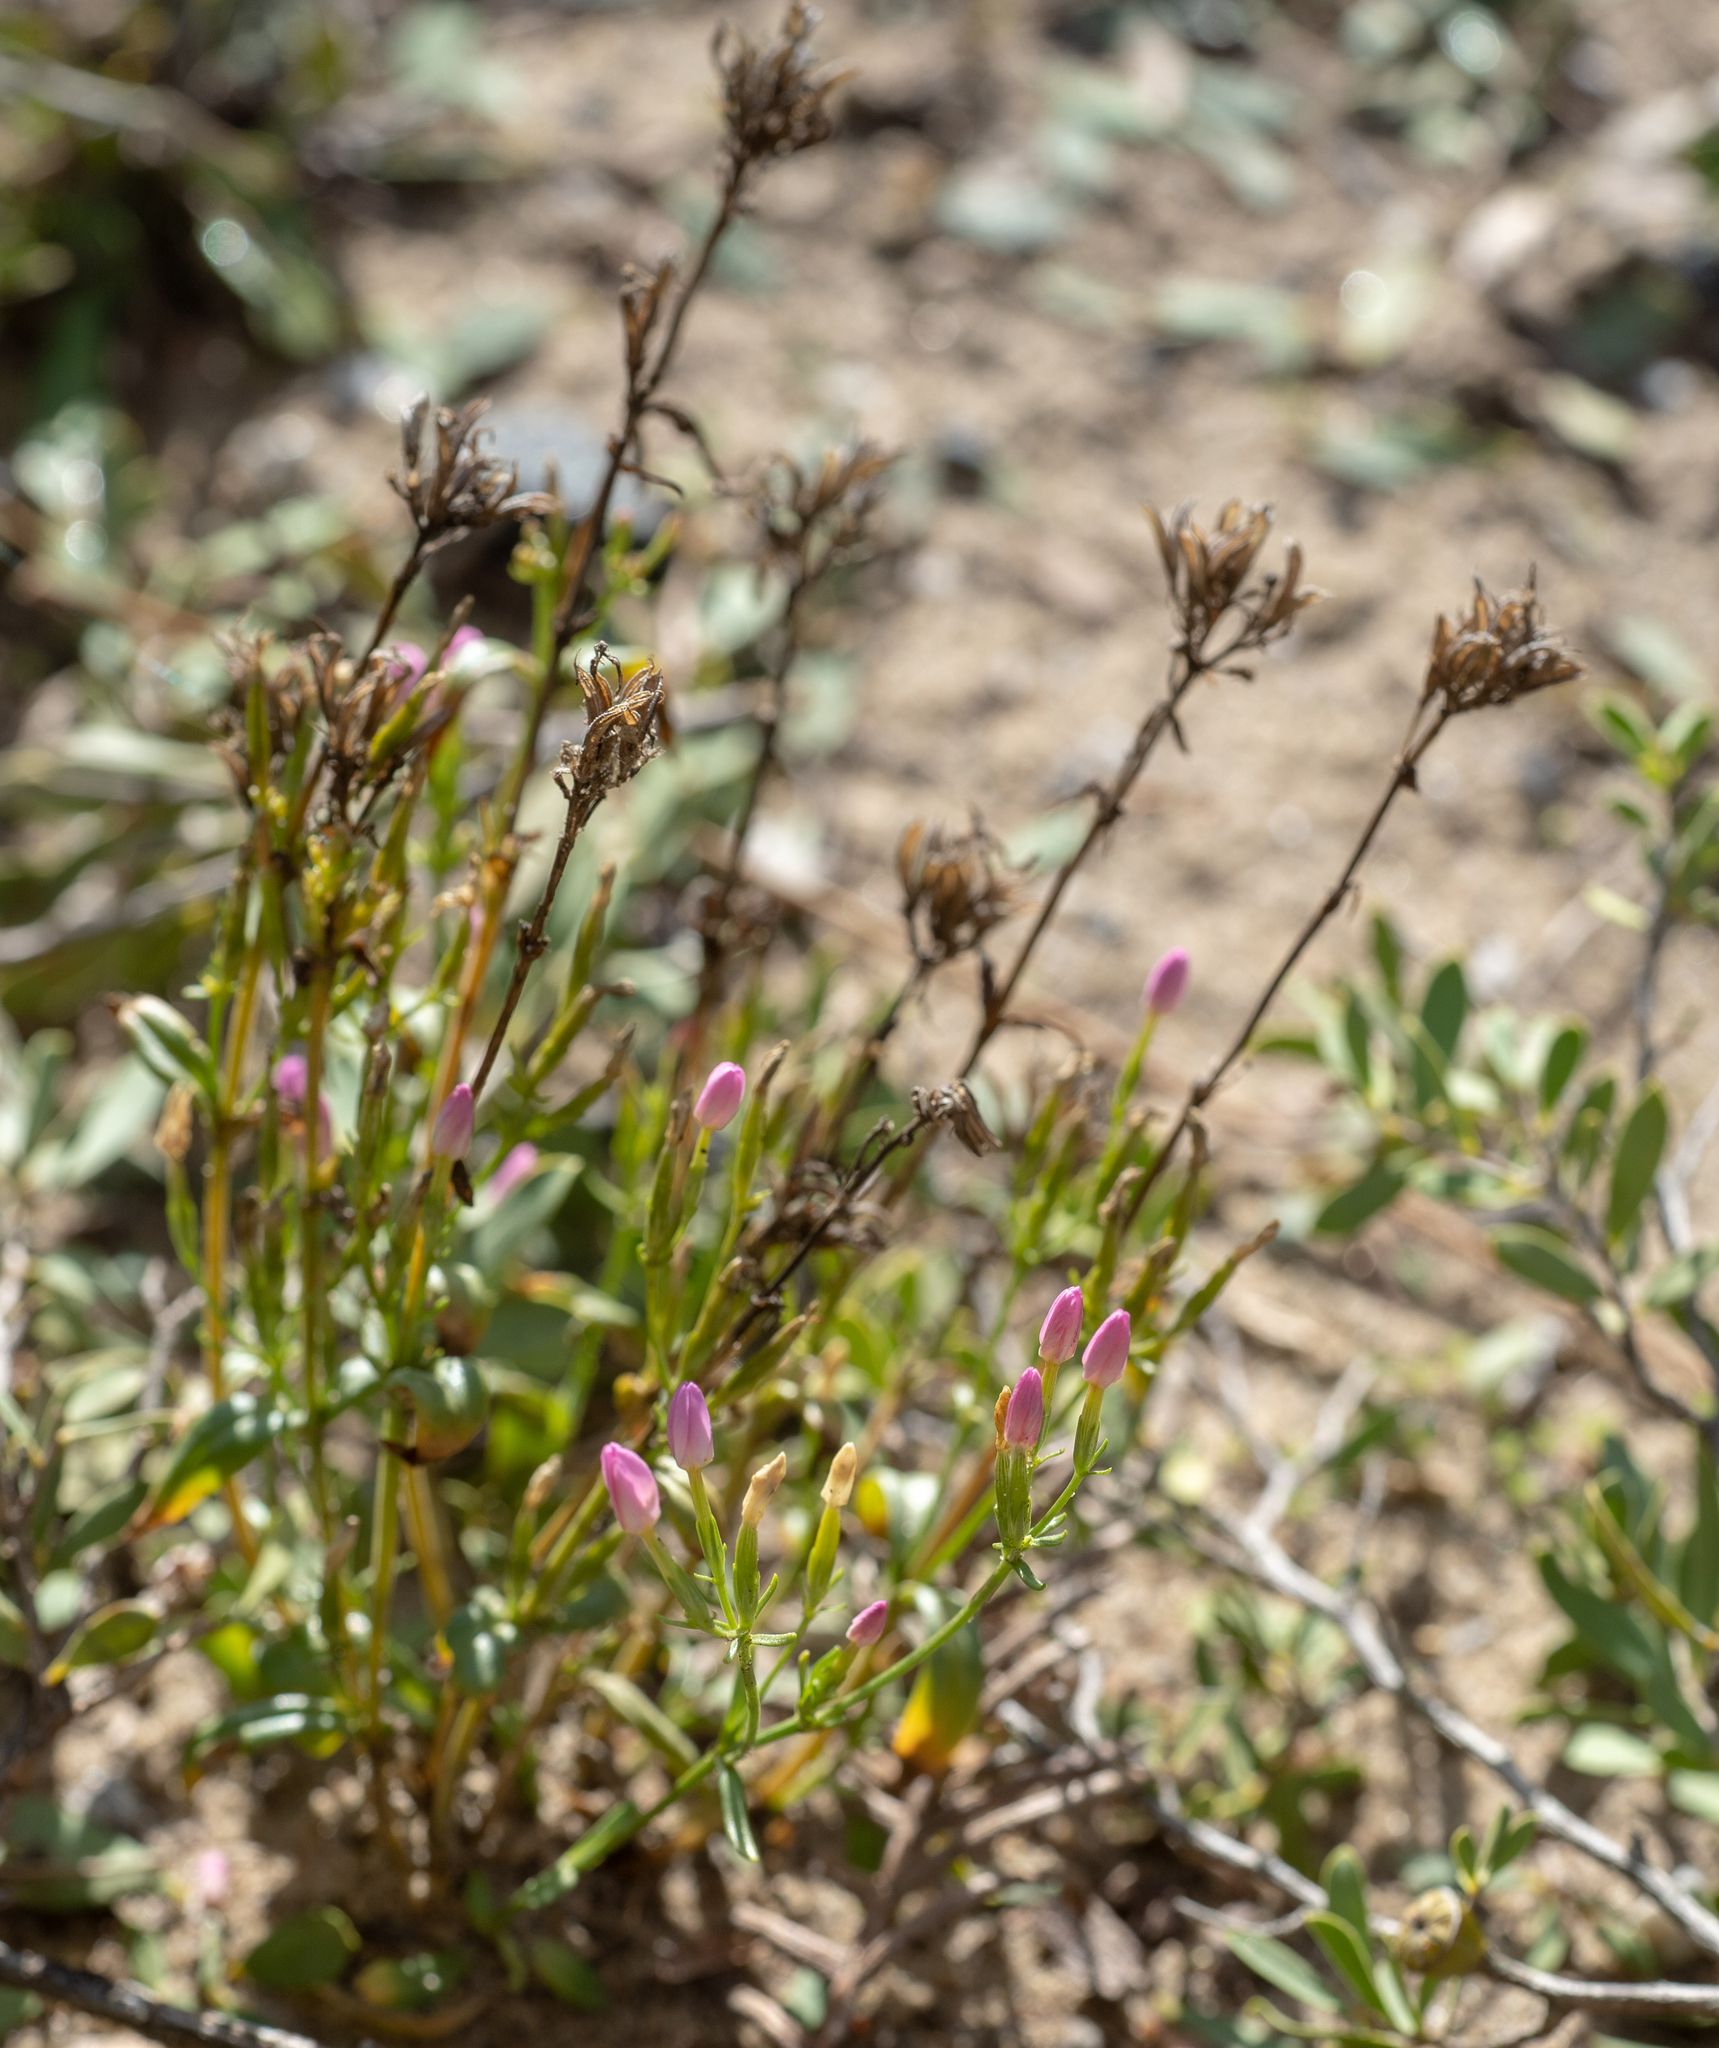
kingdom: Plantae
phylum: Tracheophyta
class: Magnoliopsida
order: Gentianales
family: Gentianaceae
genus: Centaurium
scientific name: Centaurium erythraea
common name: Common centaury
